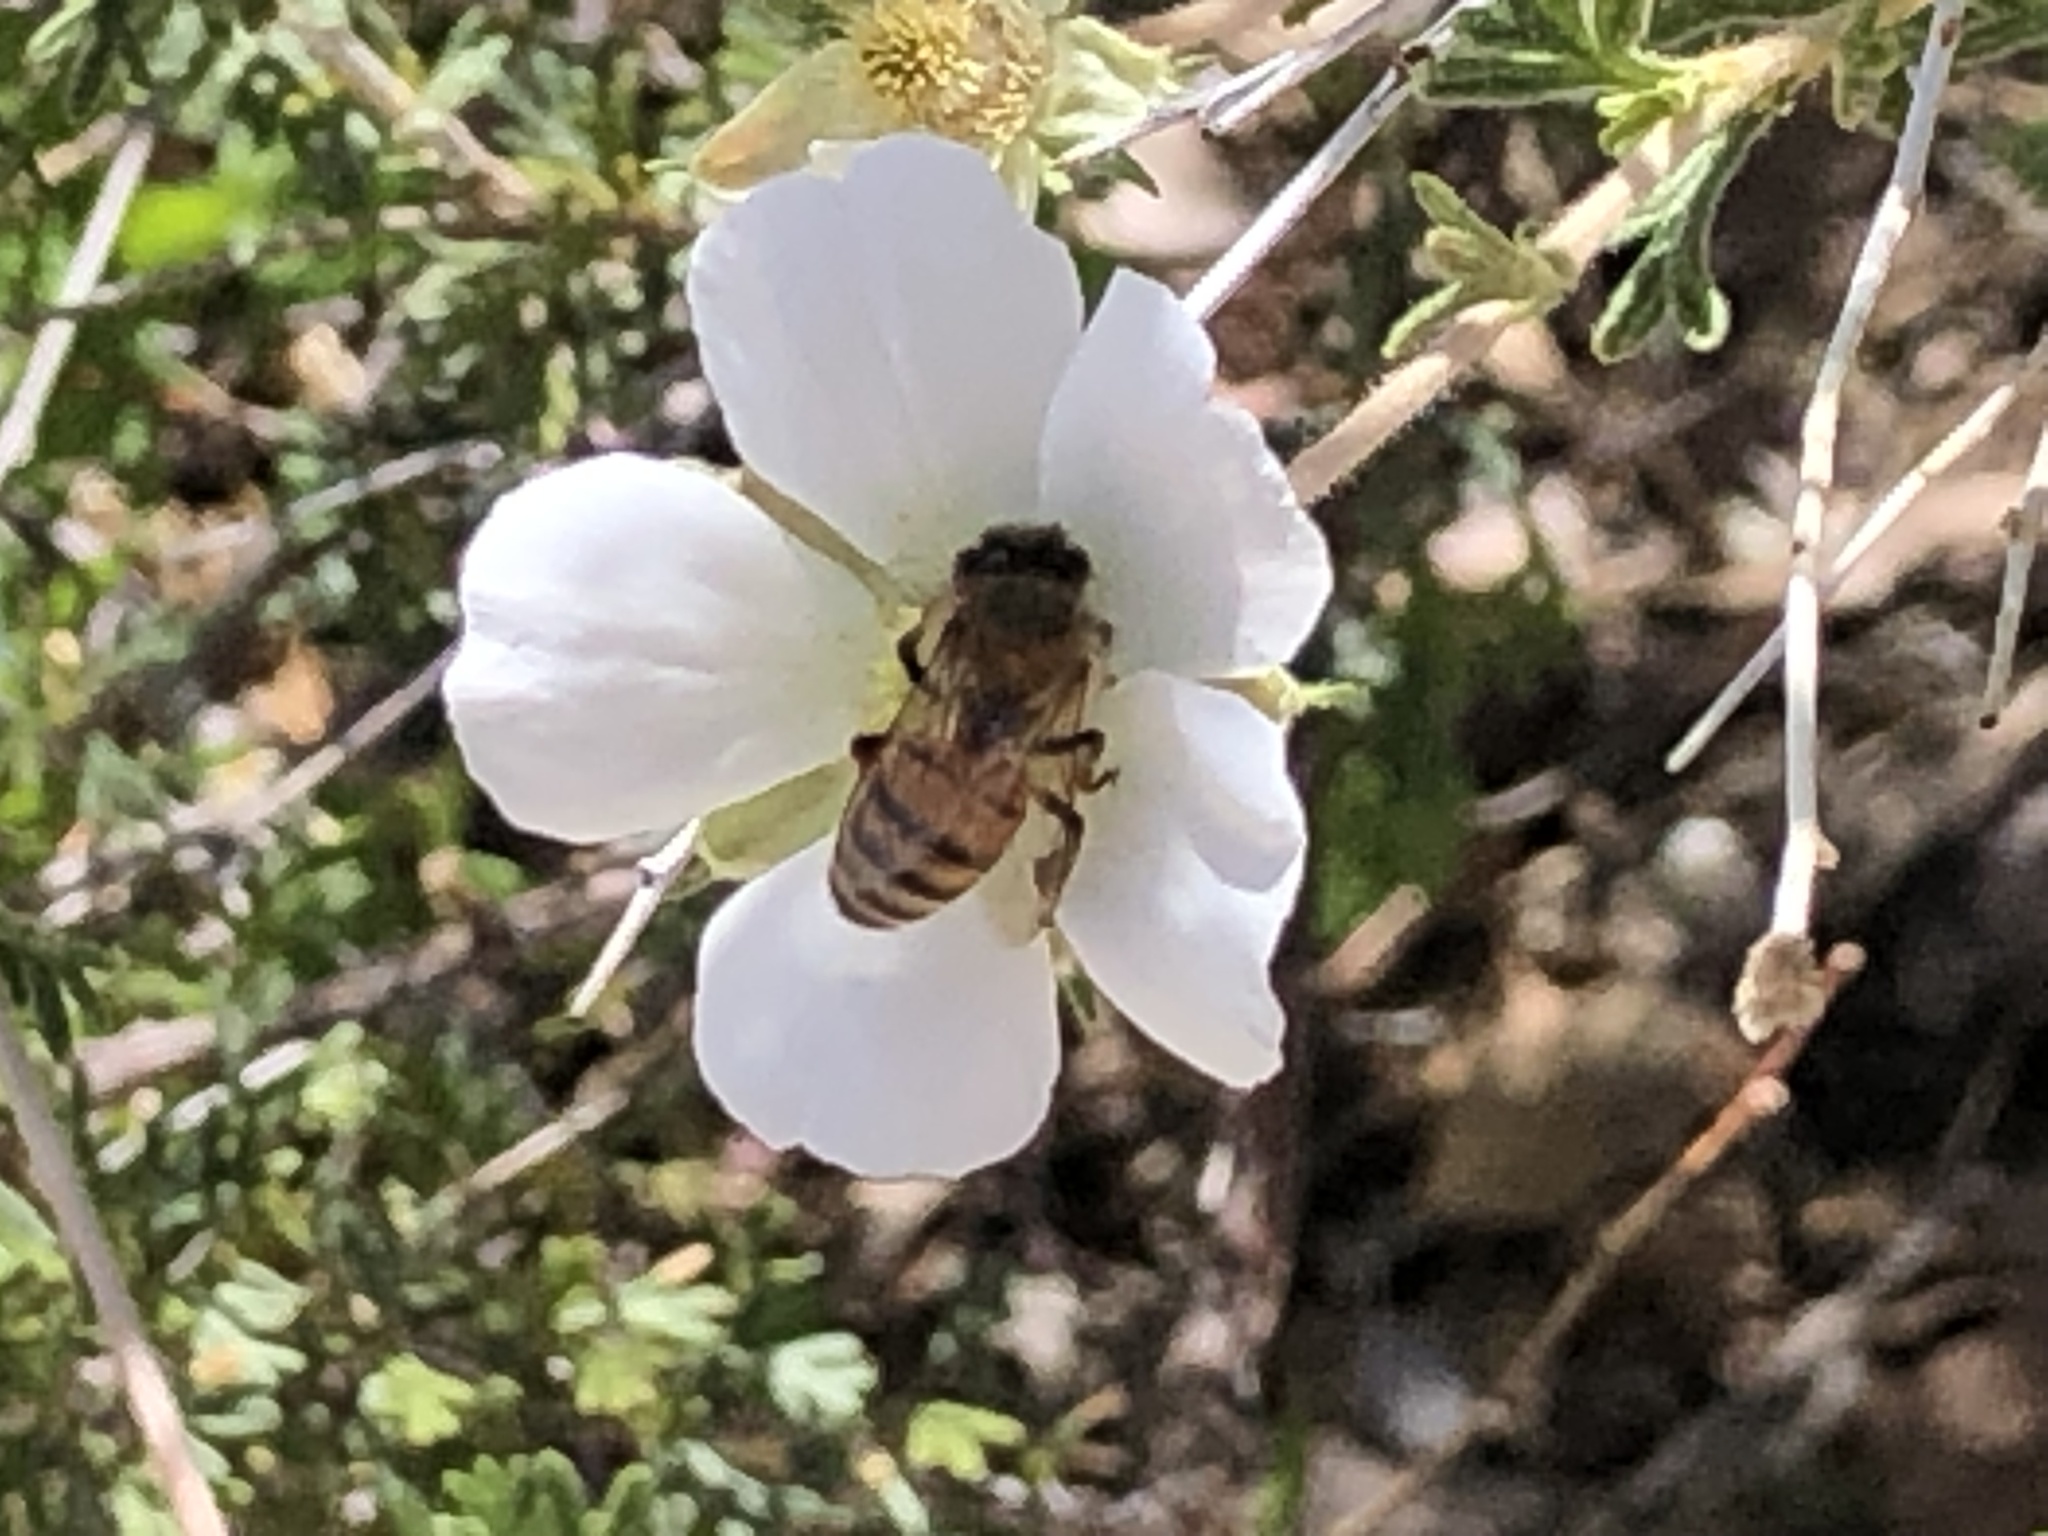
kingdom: Animalia
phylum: Arthropoda
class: Insecta
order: Hymenoptera
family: Apidae
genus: Apis
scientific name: Apis mellifera
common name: Honey bee
